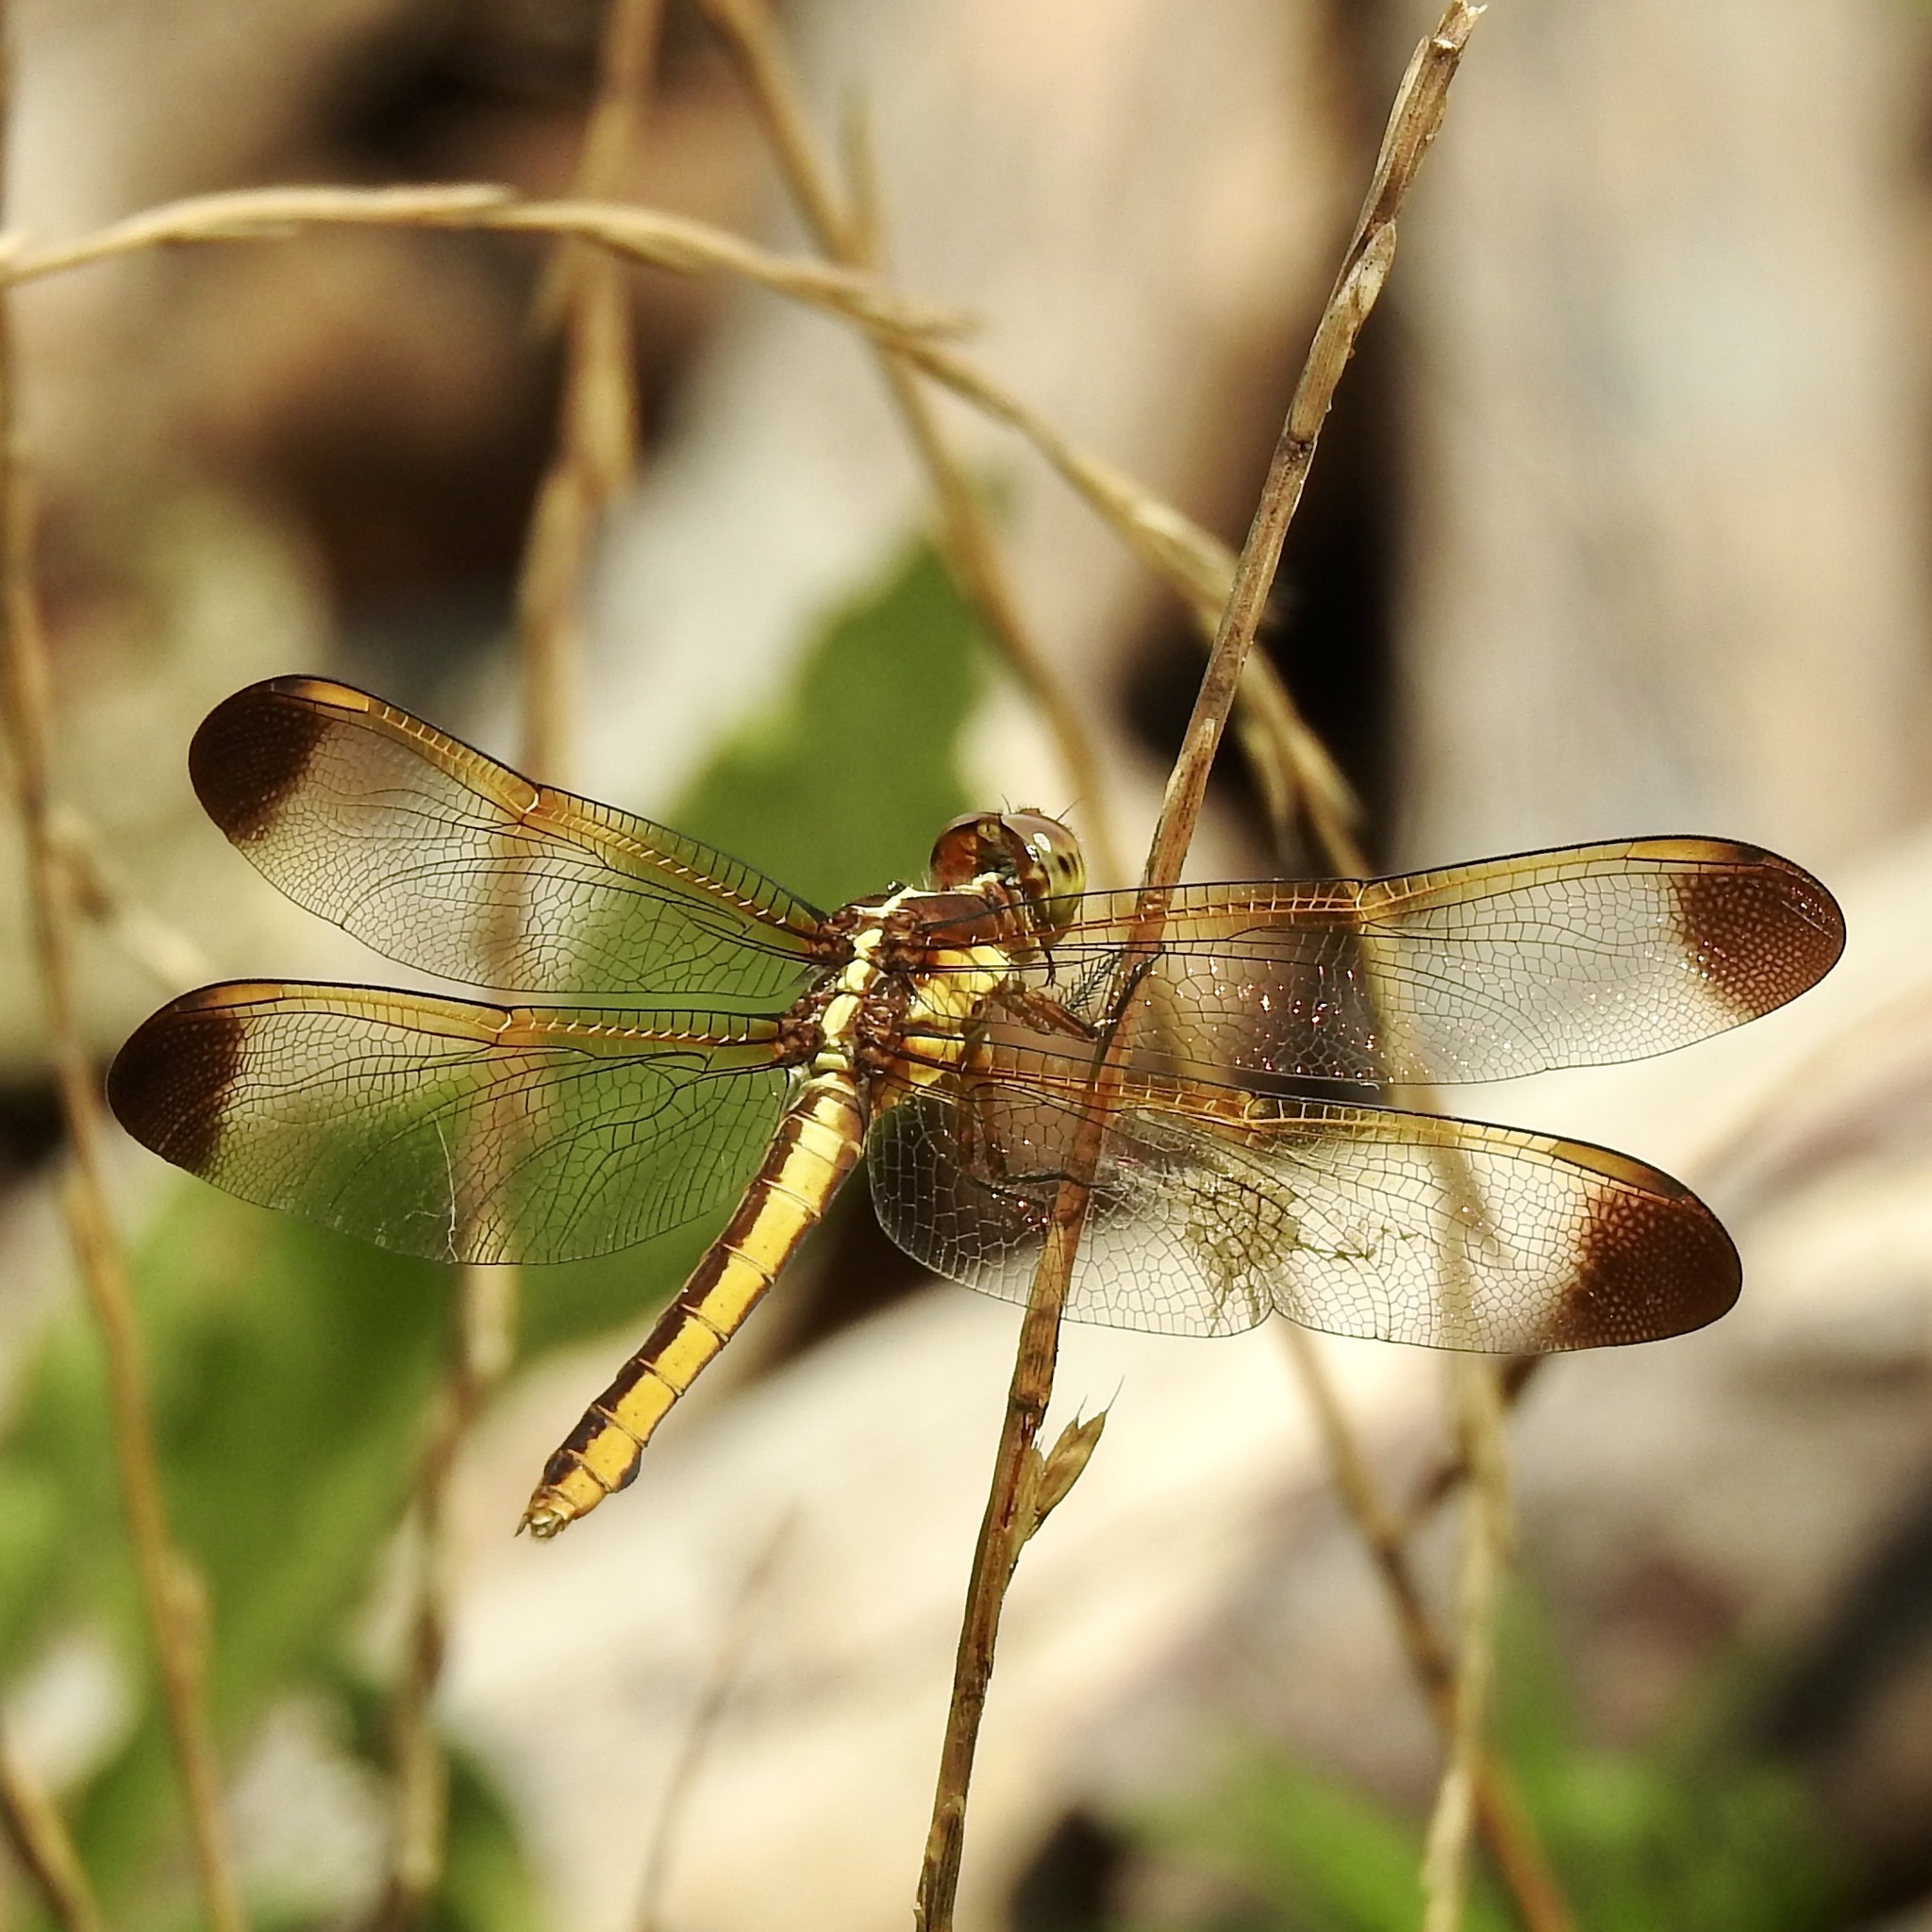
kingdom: Animalia
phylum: Arthropoda
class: Insecta
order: Odonata
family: Libellulidae
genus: Libellula
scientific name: Libellula flavida
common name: Yellow-sided skimmer
